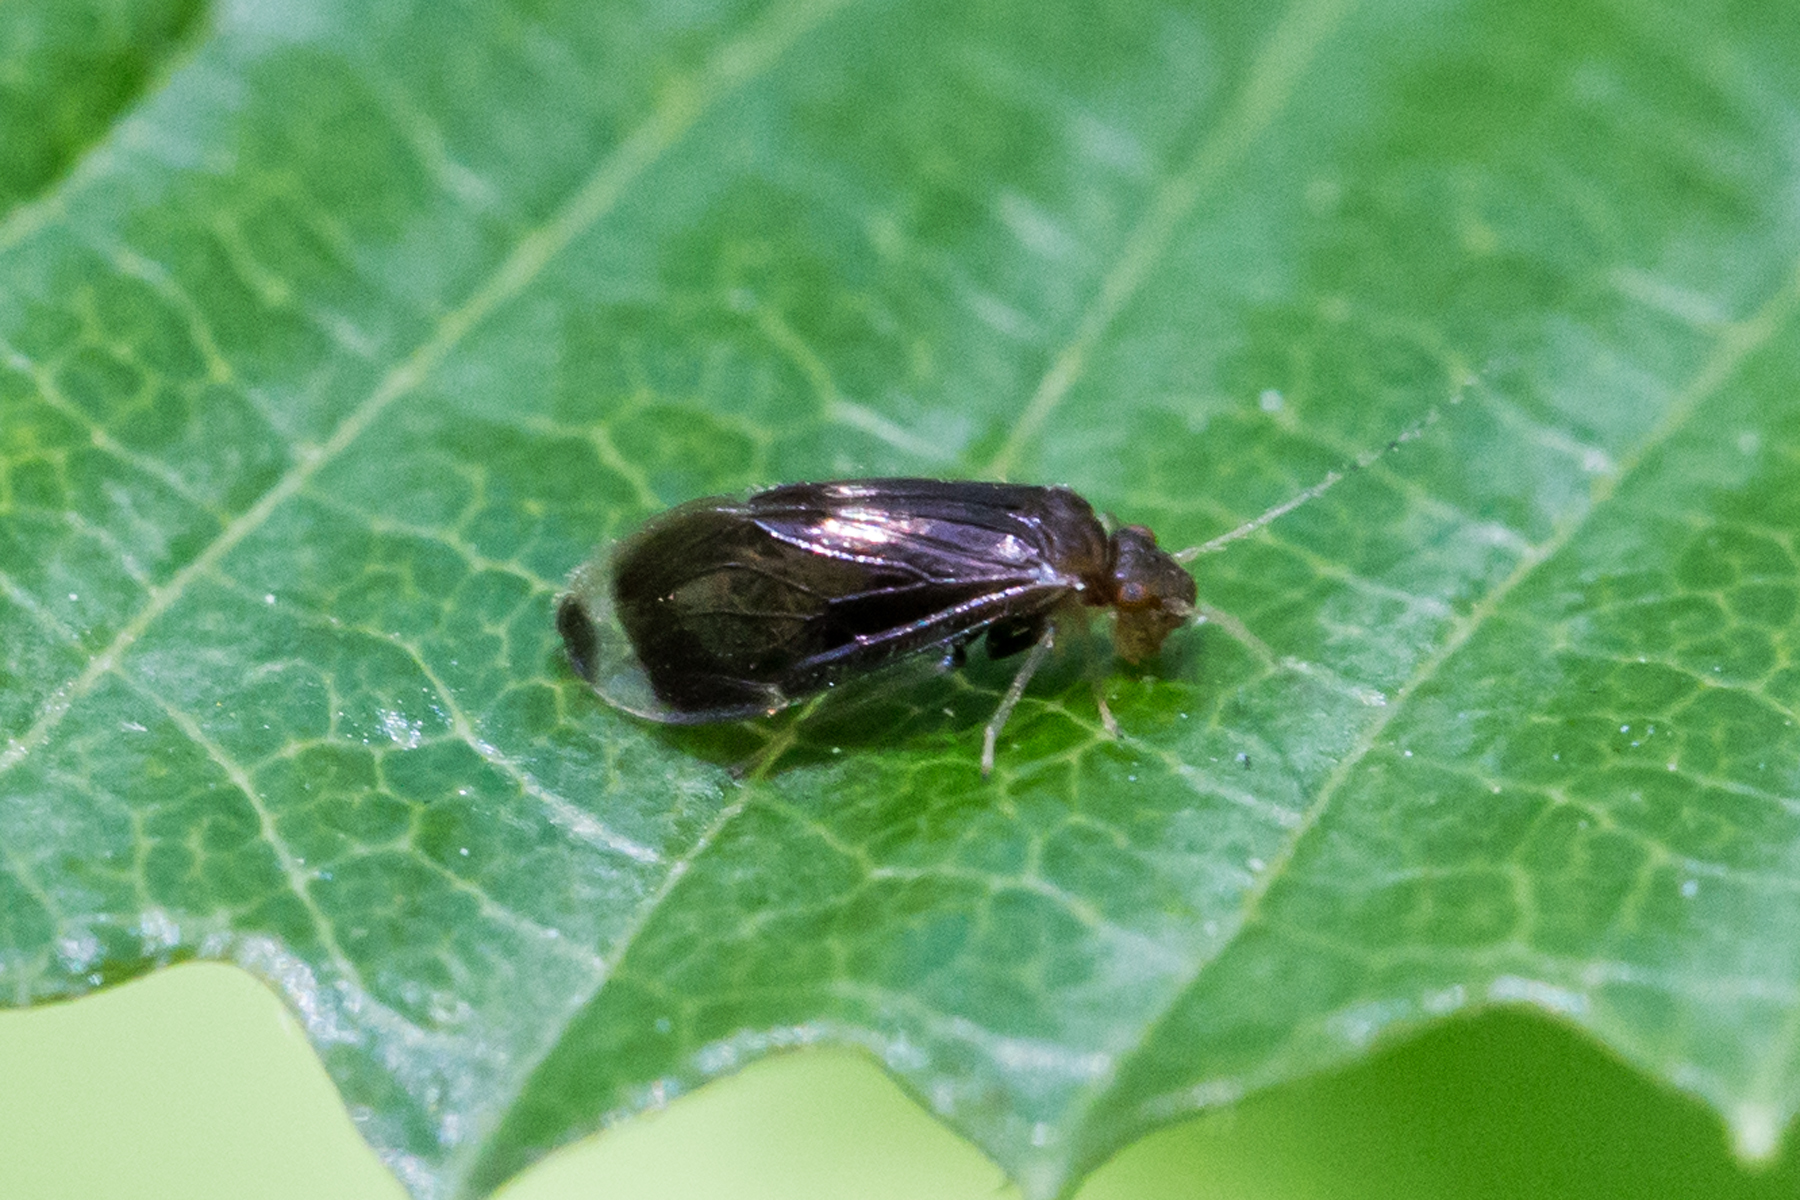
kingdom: Animalia
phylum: Arthropoda
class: Insecta
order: Psocodea
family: Amphipsocidae
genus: Polypsocus
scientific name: Polypsocus corruptus
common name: Corrupt barklouse
